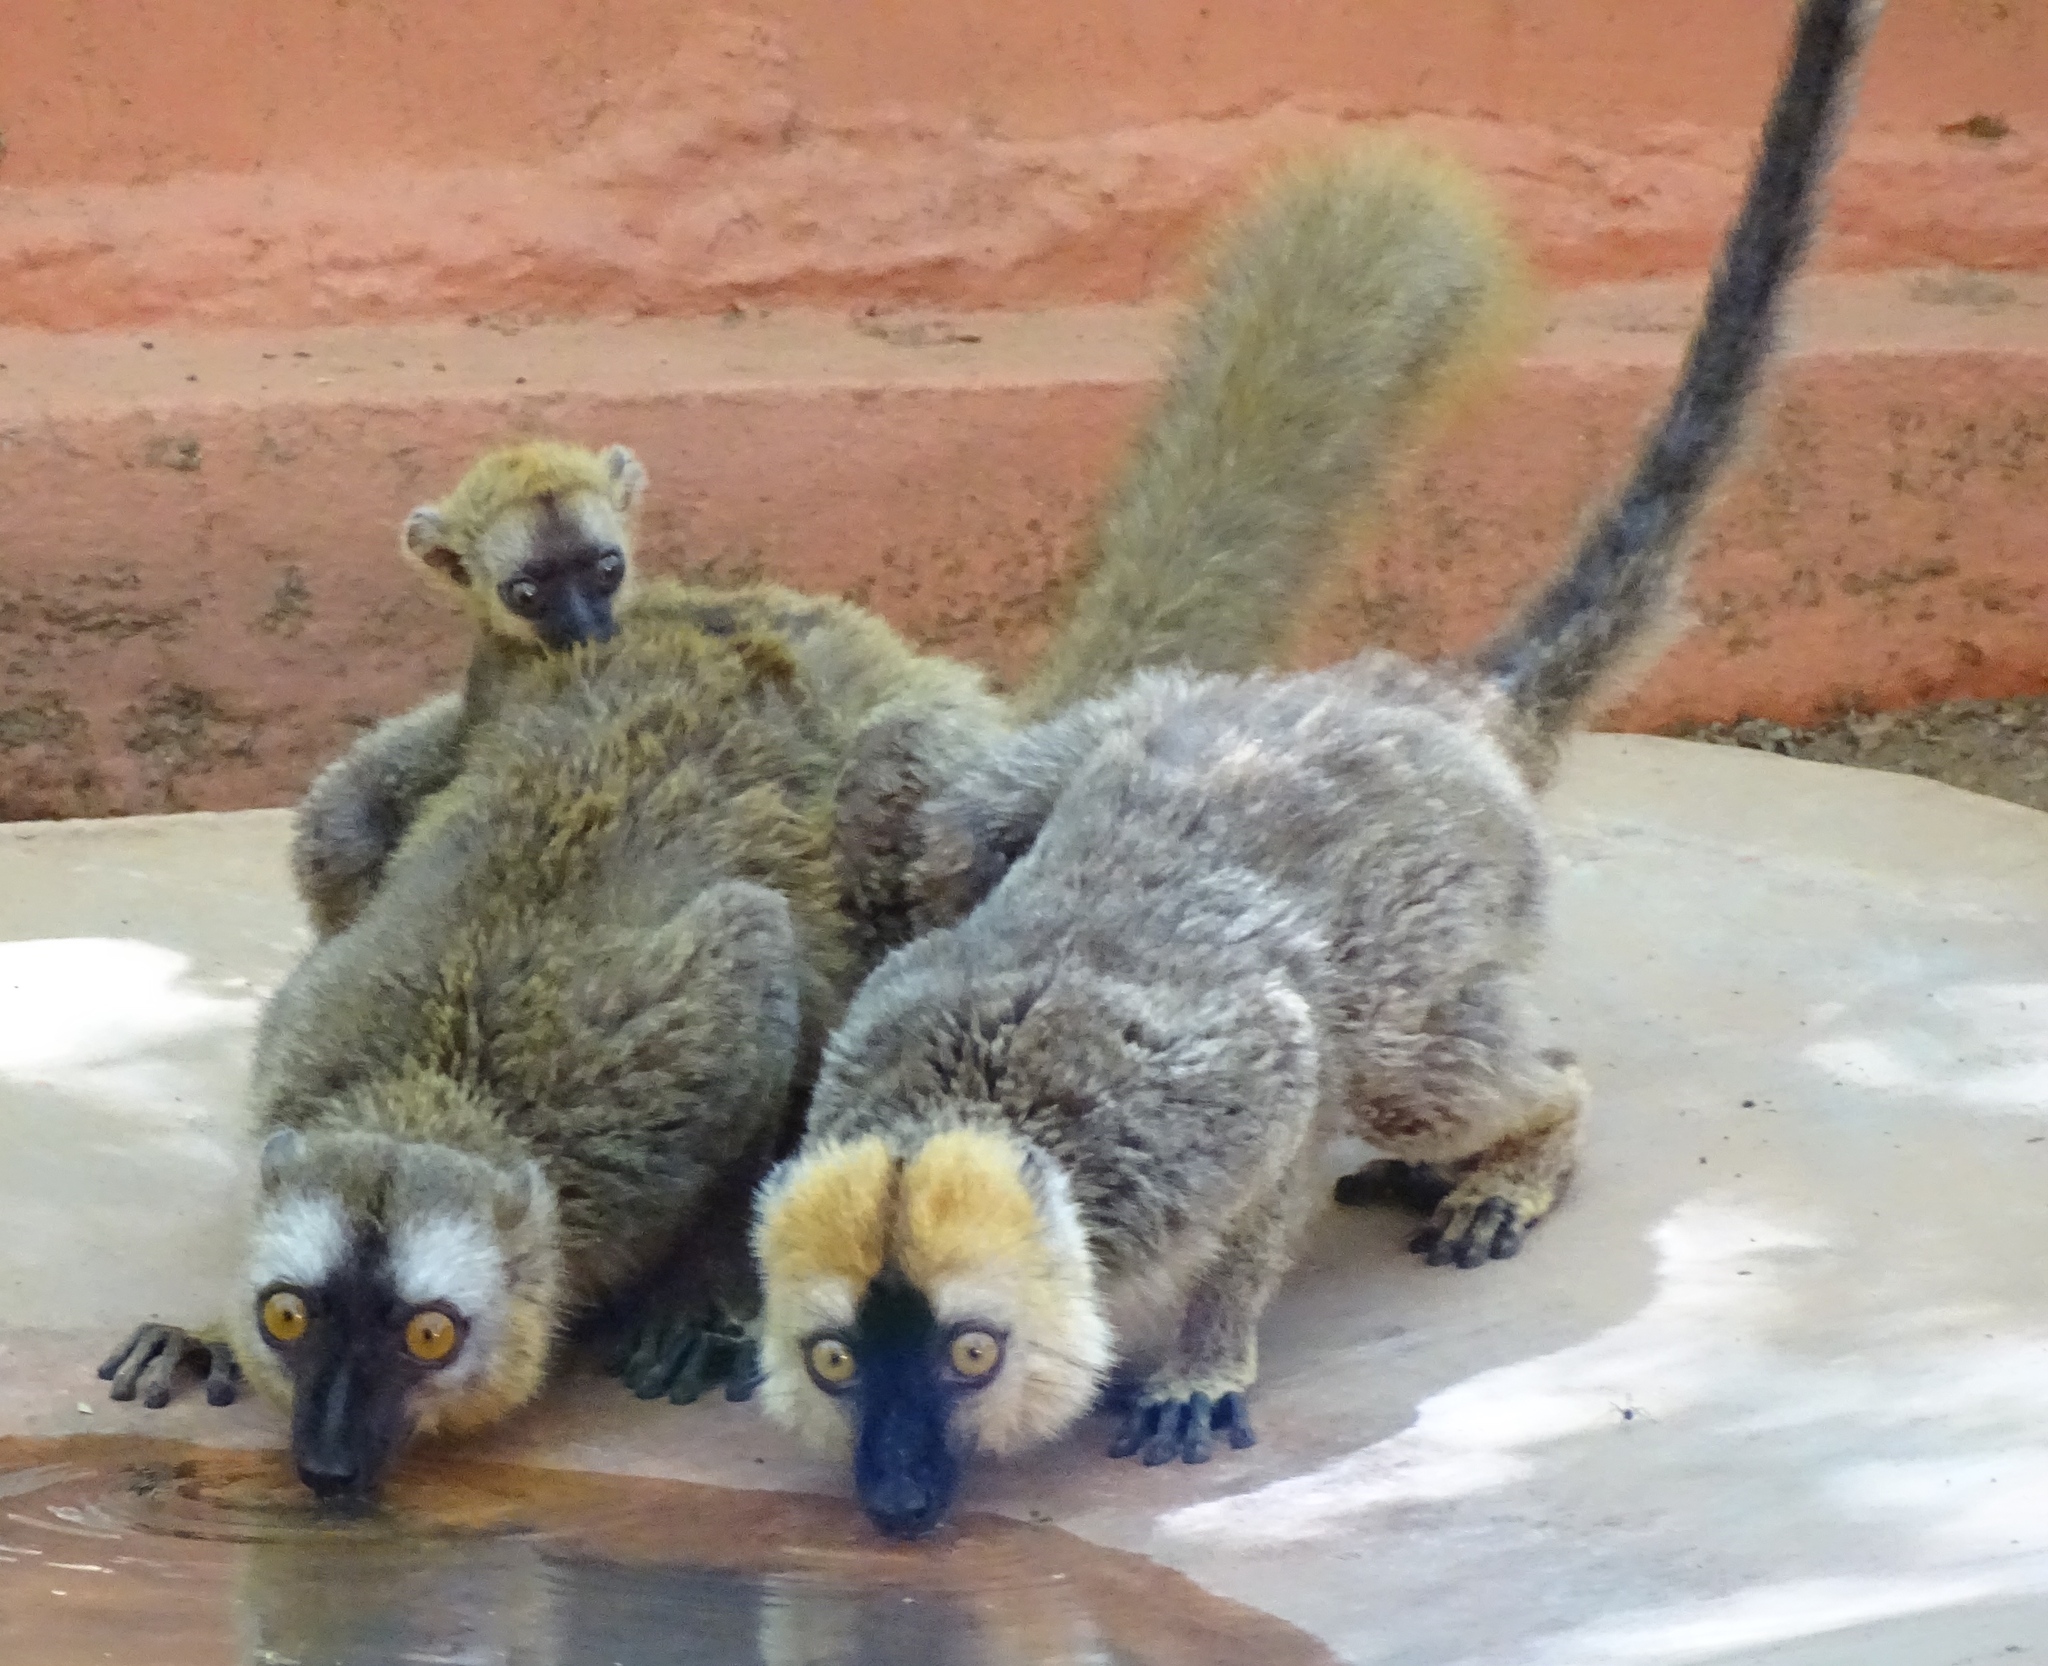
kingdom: Animalia
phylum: Chordata
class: Mammalia
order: Primates
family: Lemuridae
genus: Eulemur
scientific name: Eulemur
